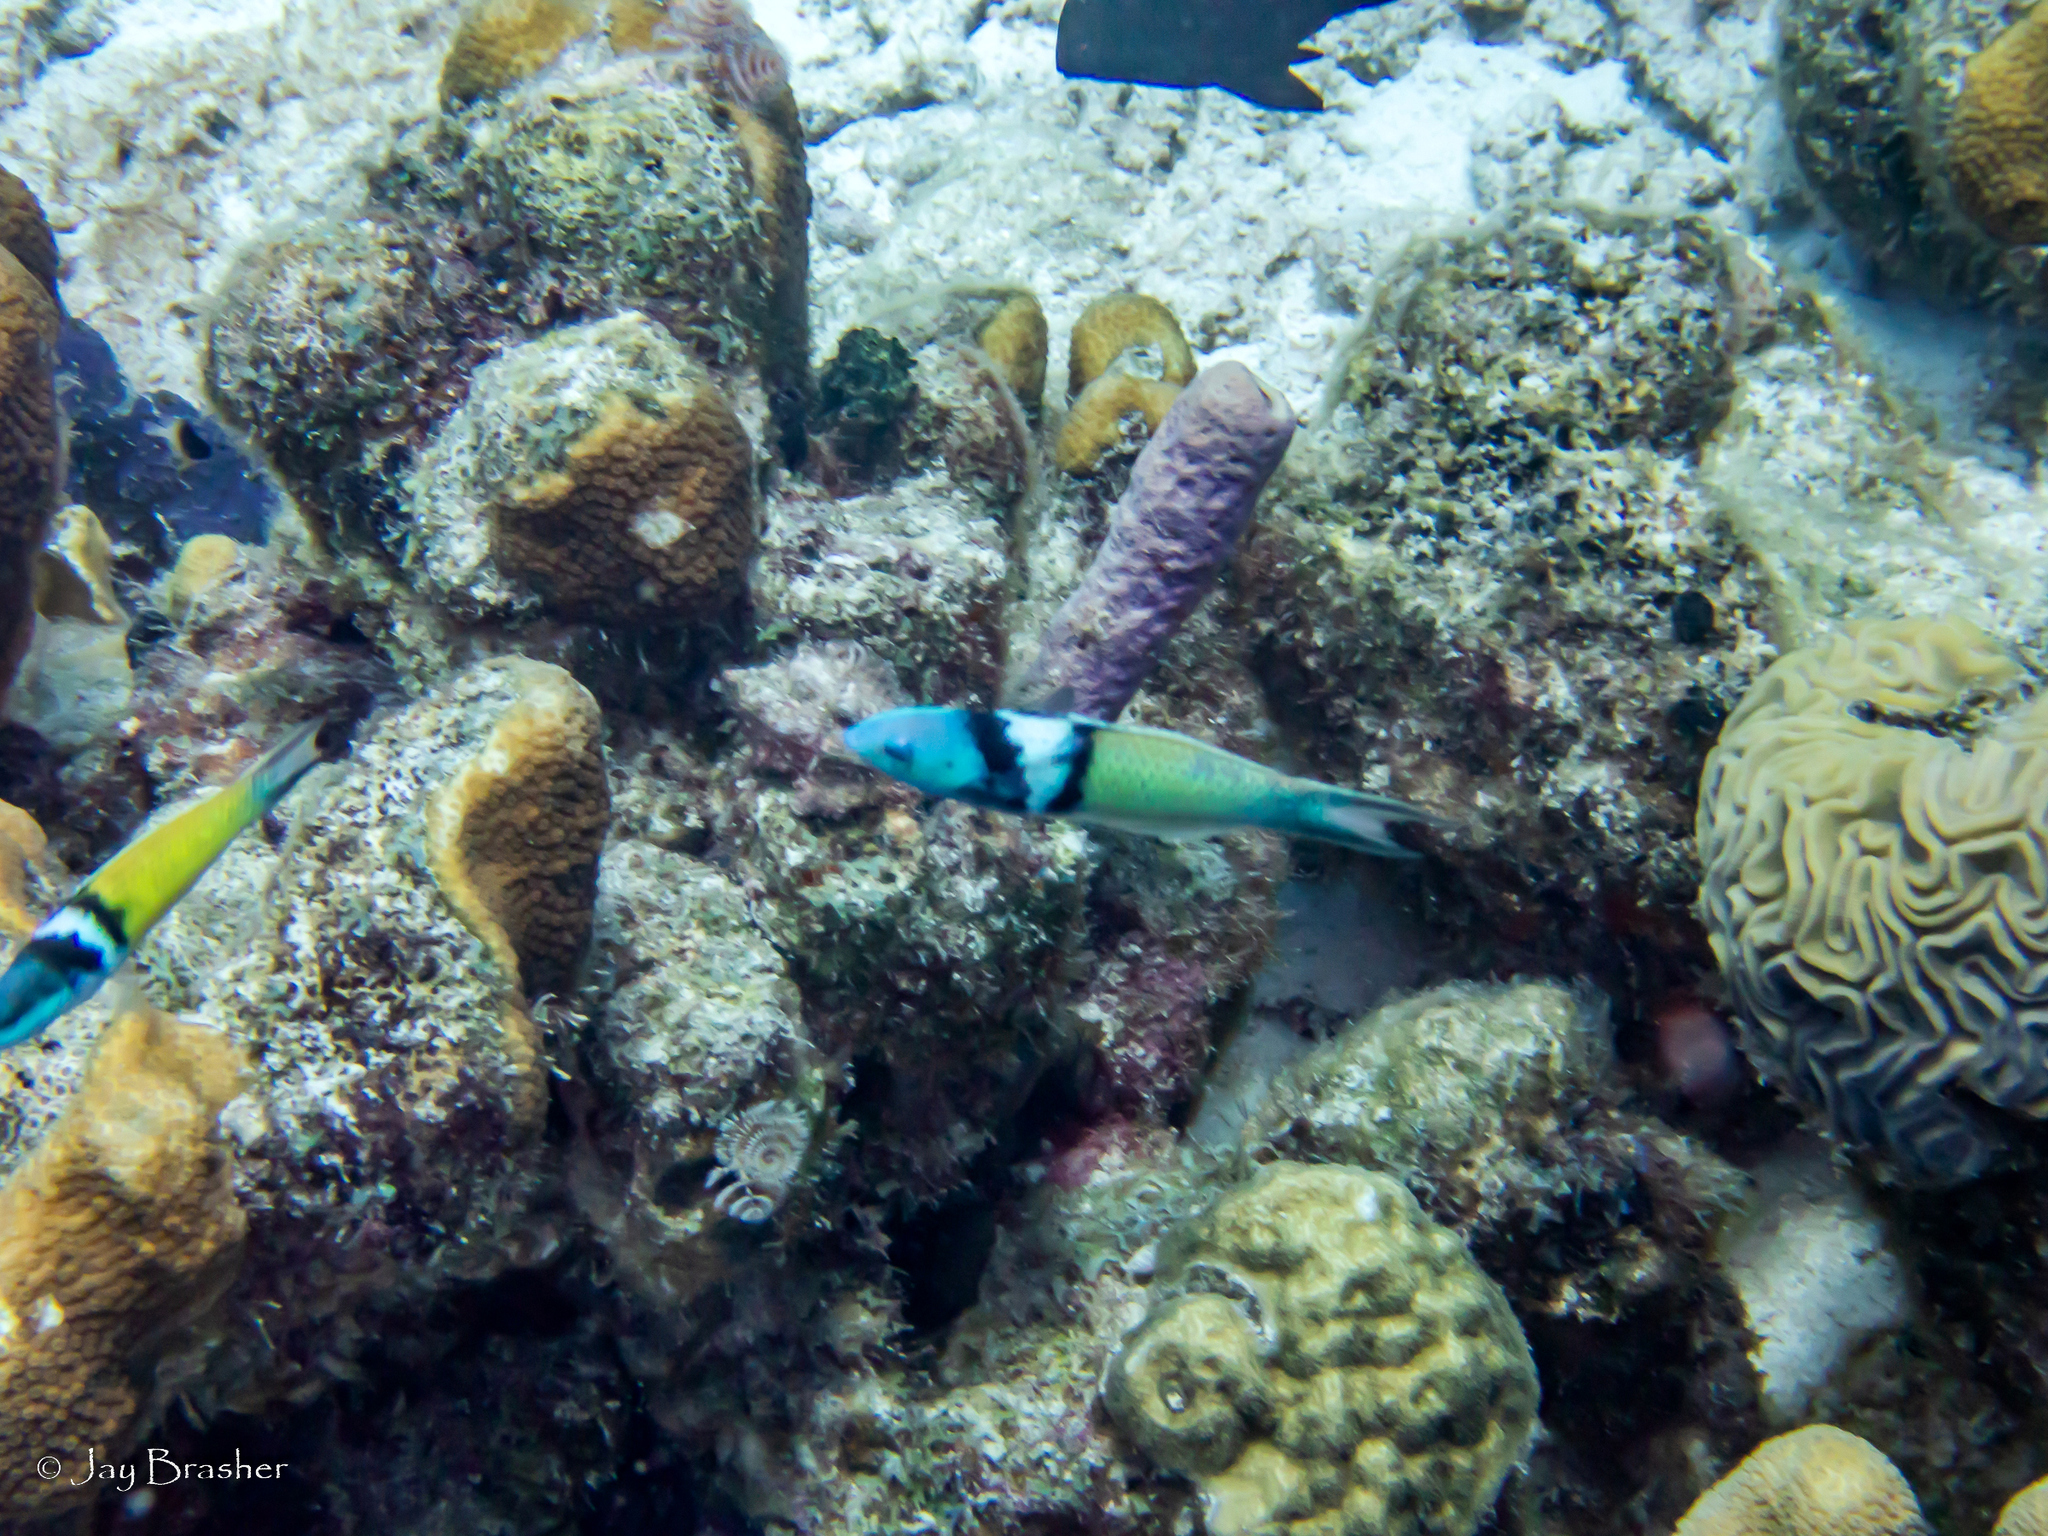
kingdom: Animalia
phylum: Cnidaria
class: Anthozoa
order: Scleractinia
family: Faviidae
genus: Diploria
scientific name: Diploria labyrinthiformis
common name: Grooved brain coral
